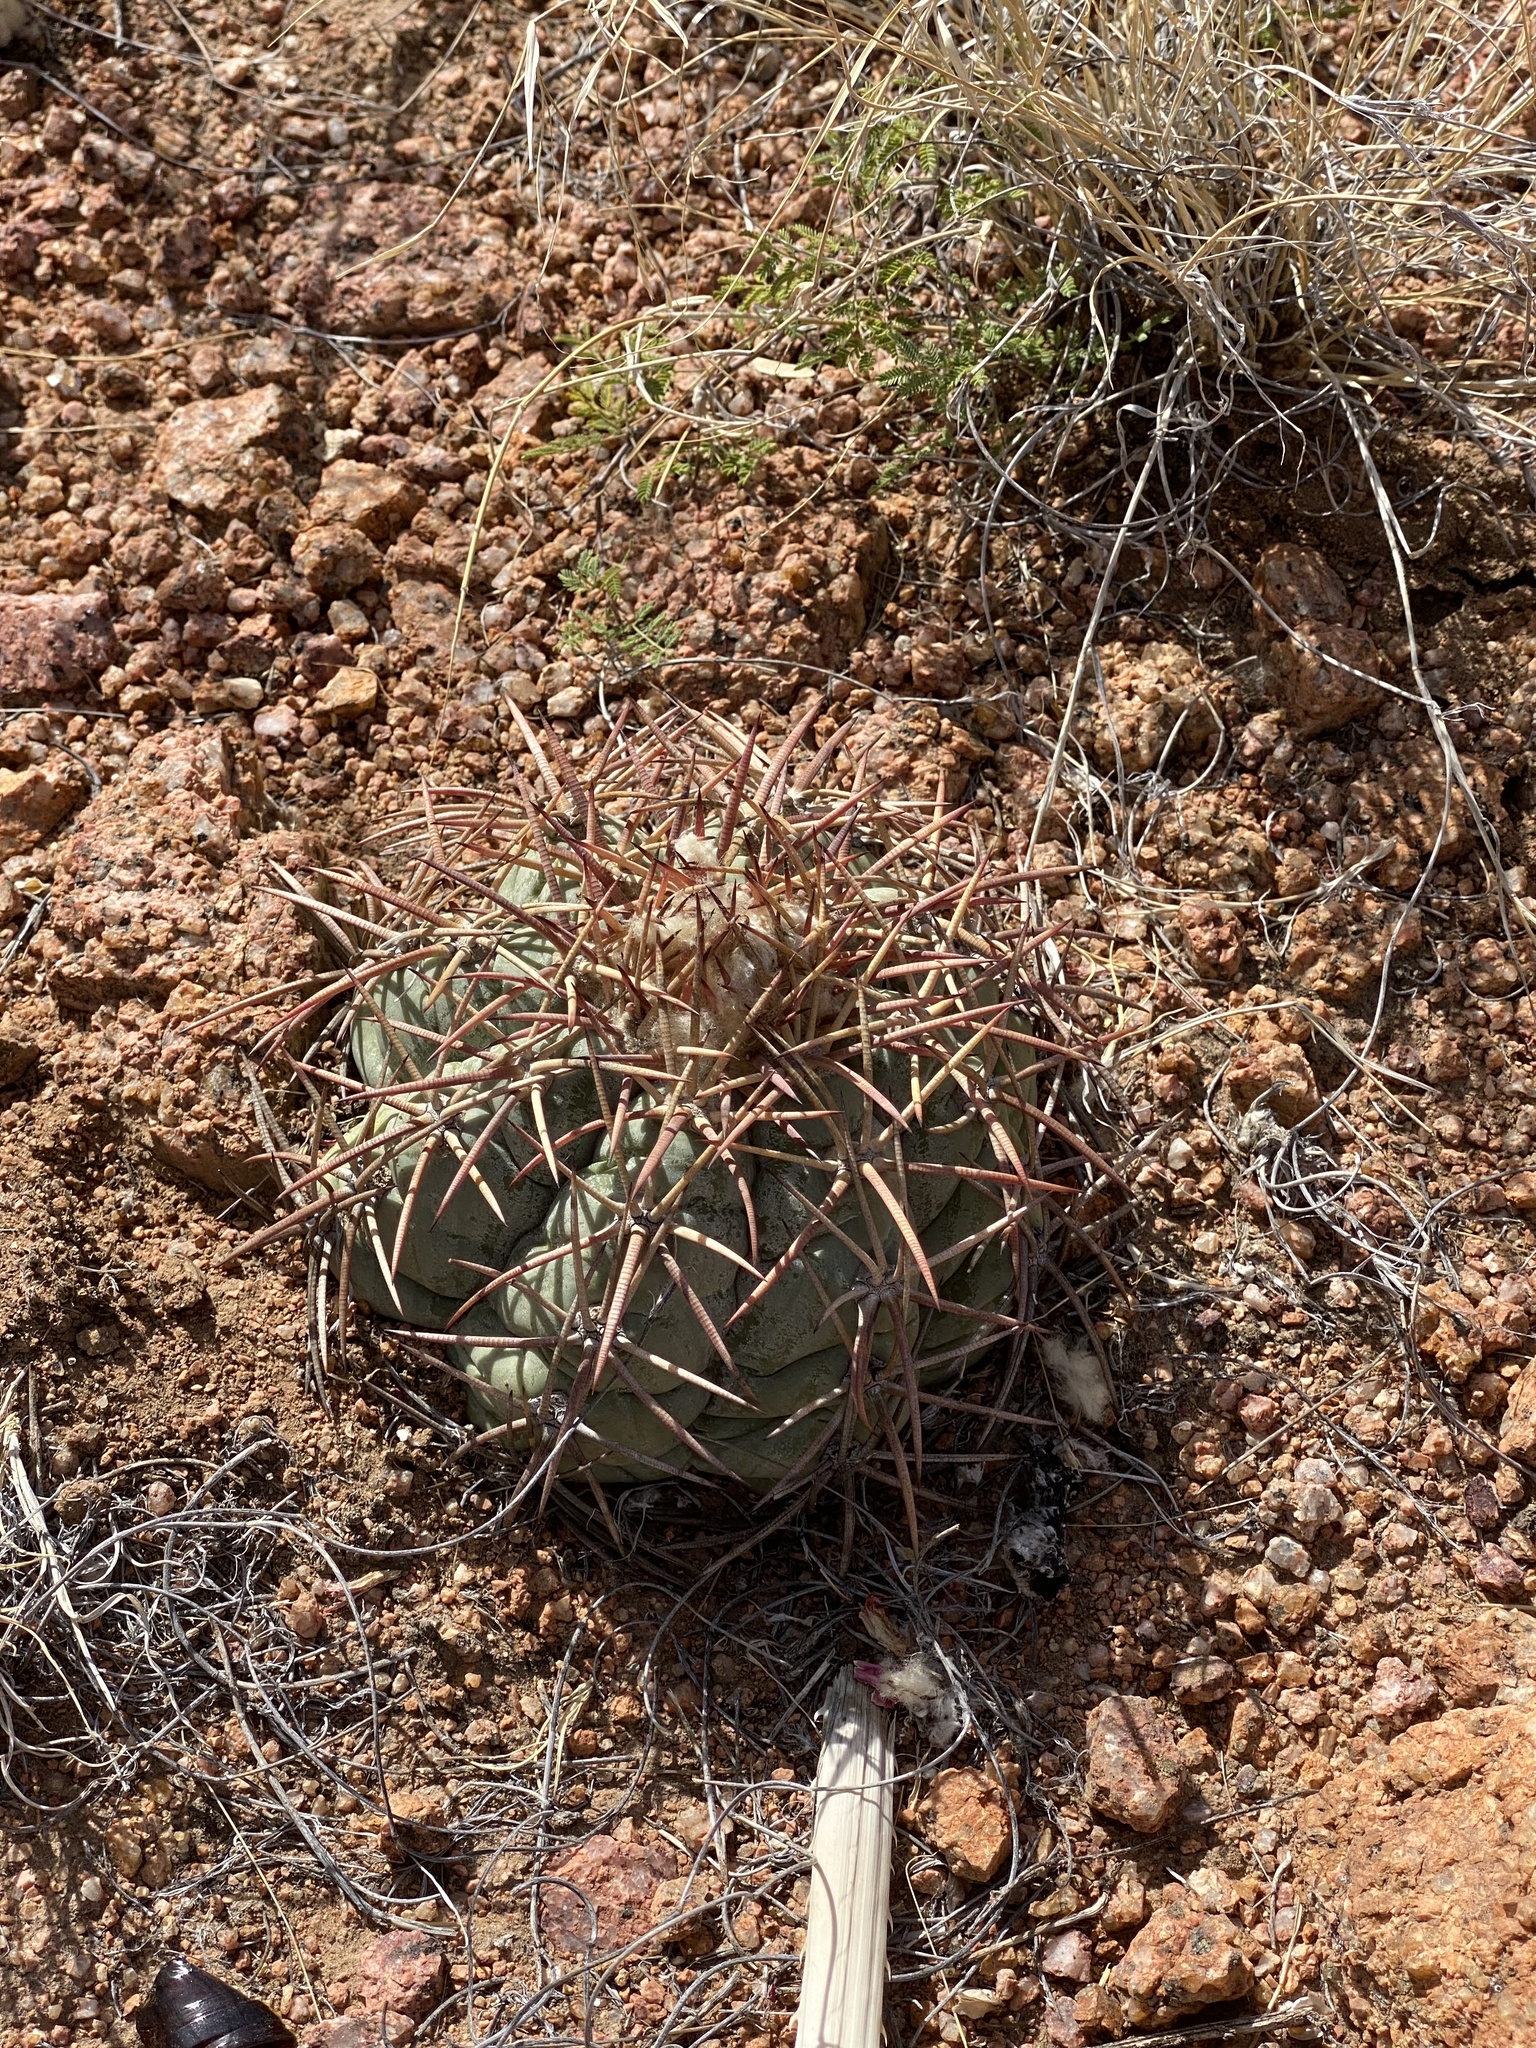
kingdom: Plantae
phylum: Tracheophyta
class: Magnoliopsida
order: Caryophyllales
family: Cactaceae
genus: Echinocactus
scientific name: Echinocactus horizonthalonius
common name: Devilshead
